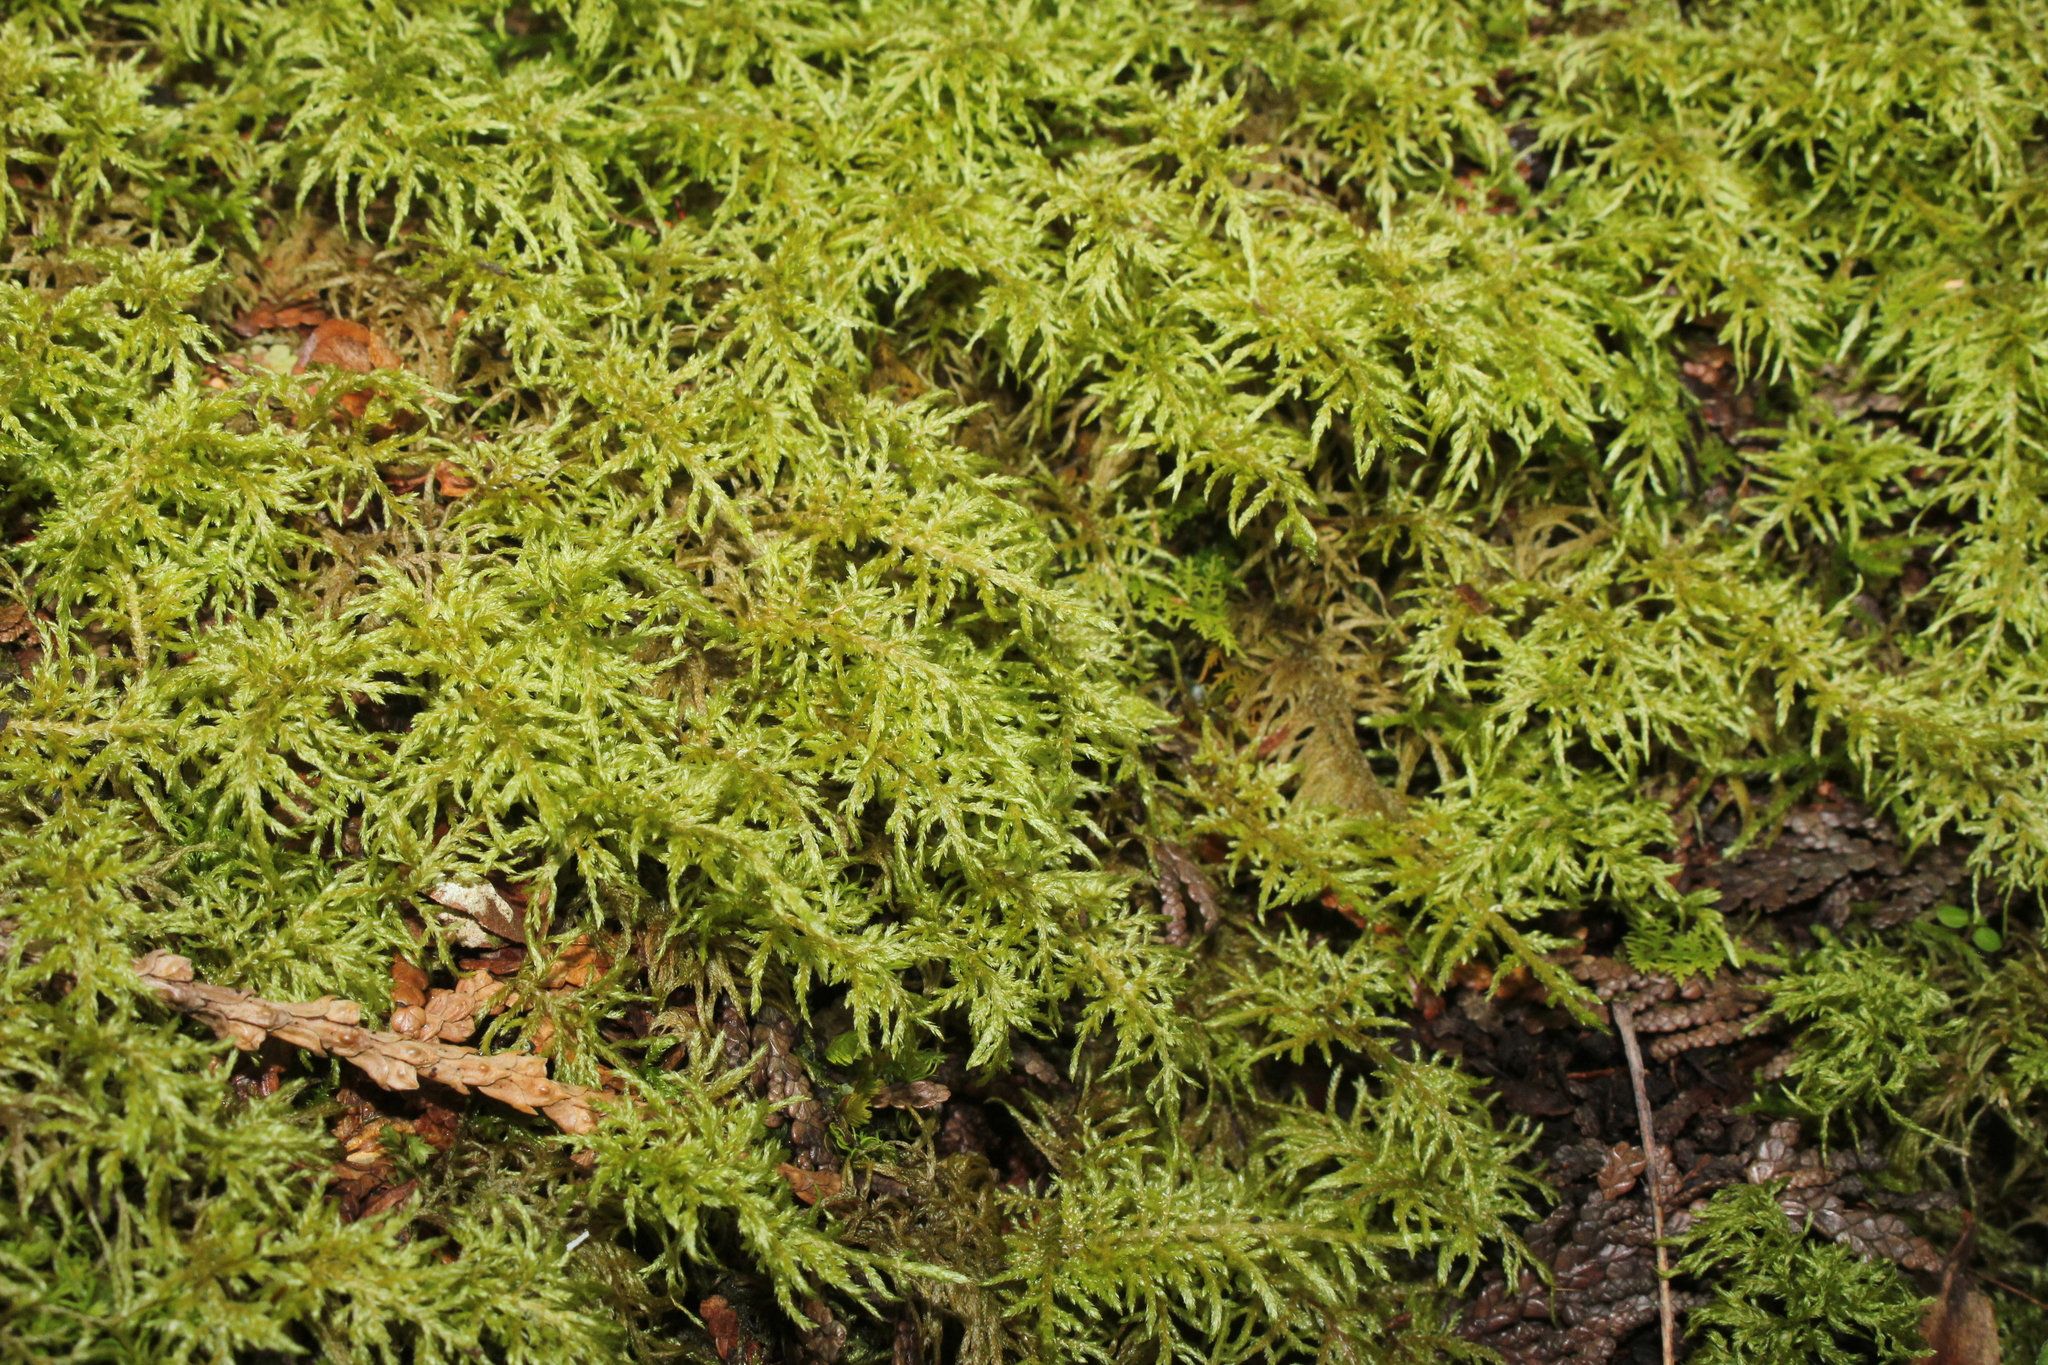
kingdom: Plantae
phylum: Bryophyta
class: Bryopsida
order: Hypnales
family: Hylocomiaceae
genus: Hylocomium
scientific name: Hylocomium splendens
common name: Stairstep moss
